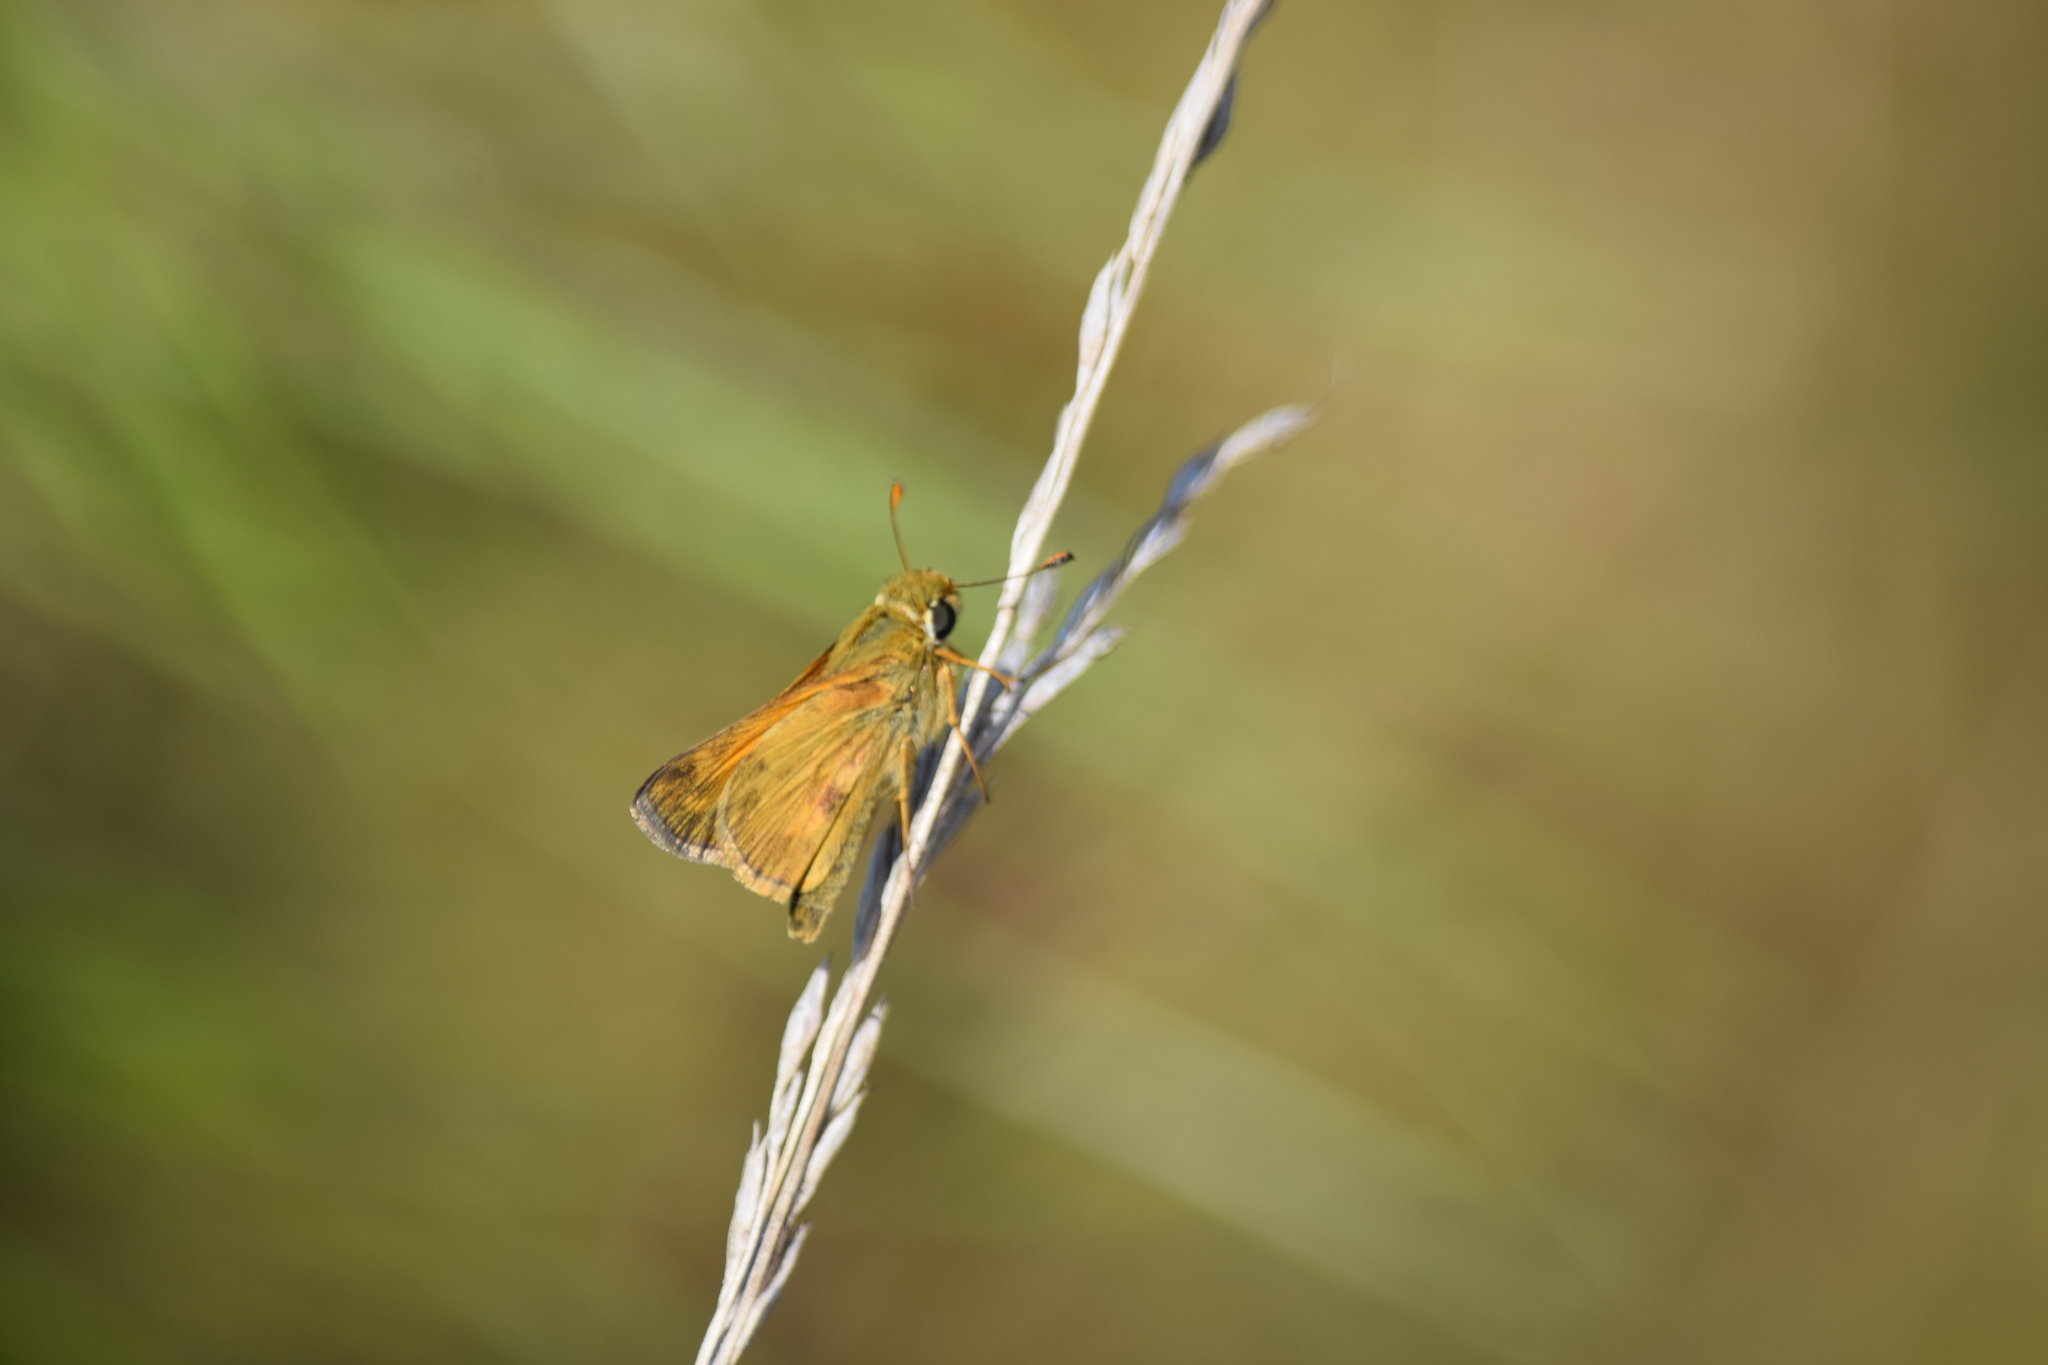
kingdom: Animalia
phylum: Arthropoda
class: Insecta
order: Lepidoptera
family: Hesperiidae
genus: Atalopedes
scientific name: Atalopedes
